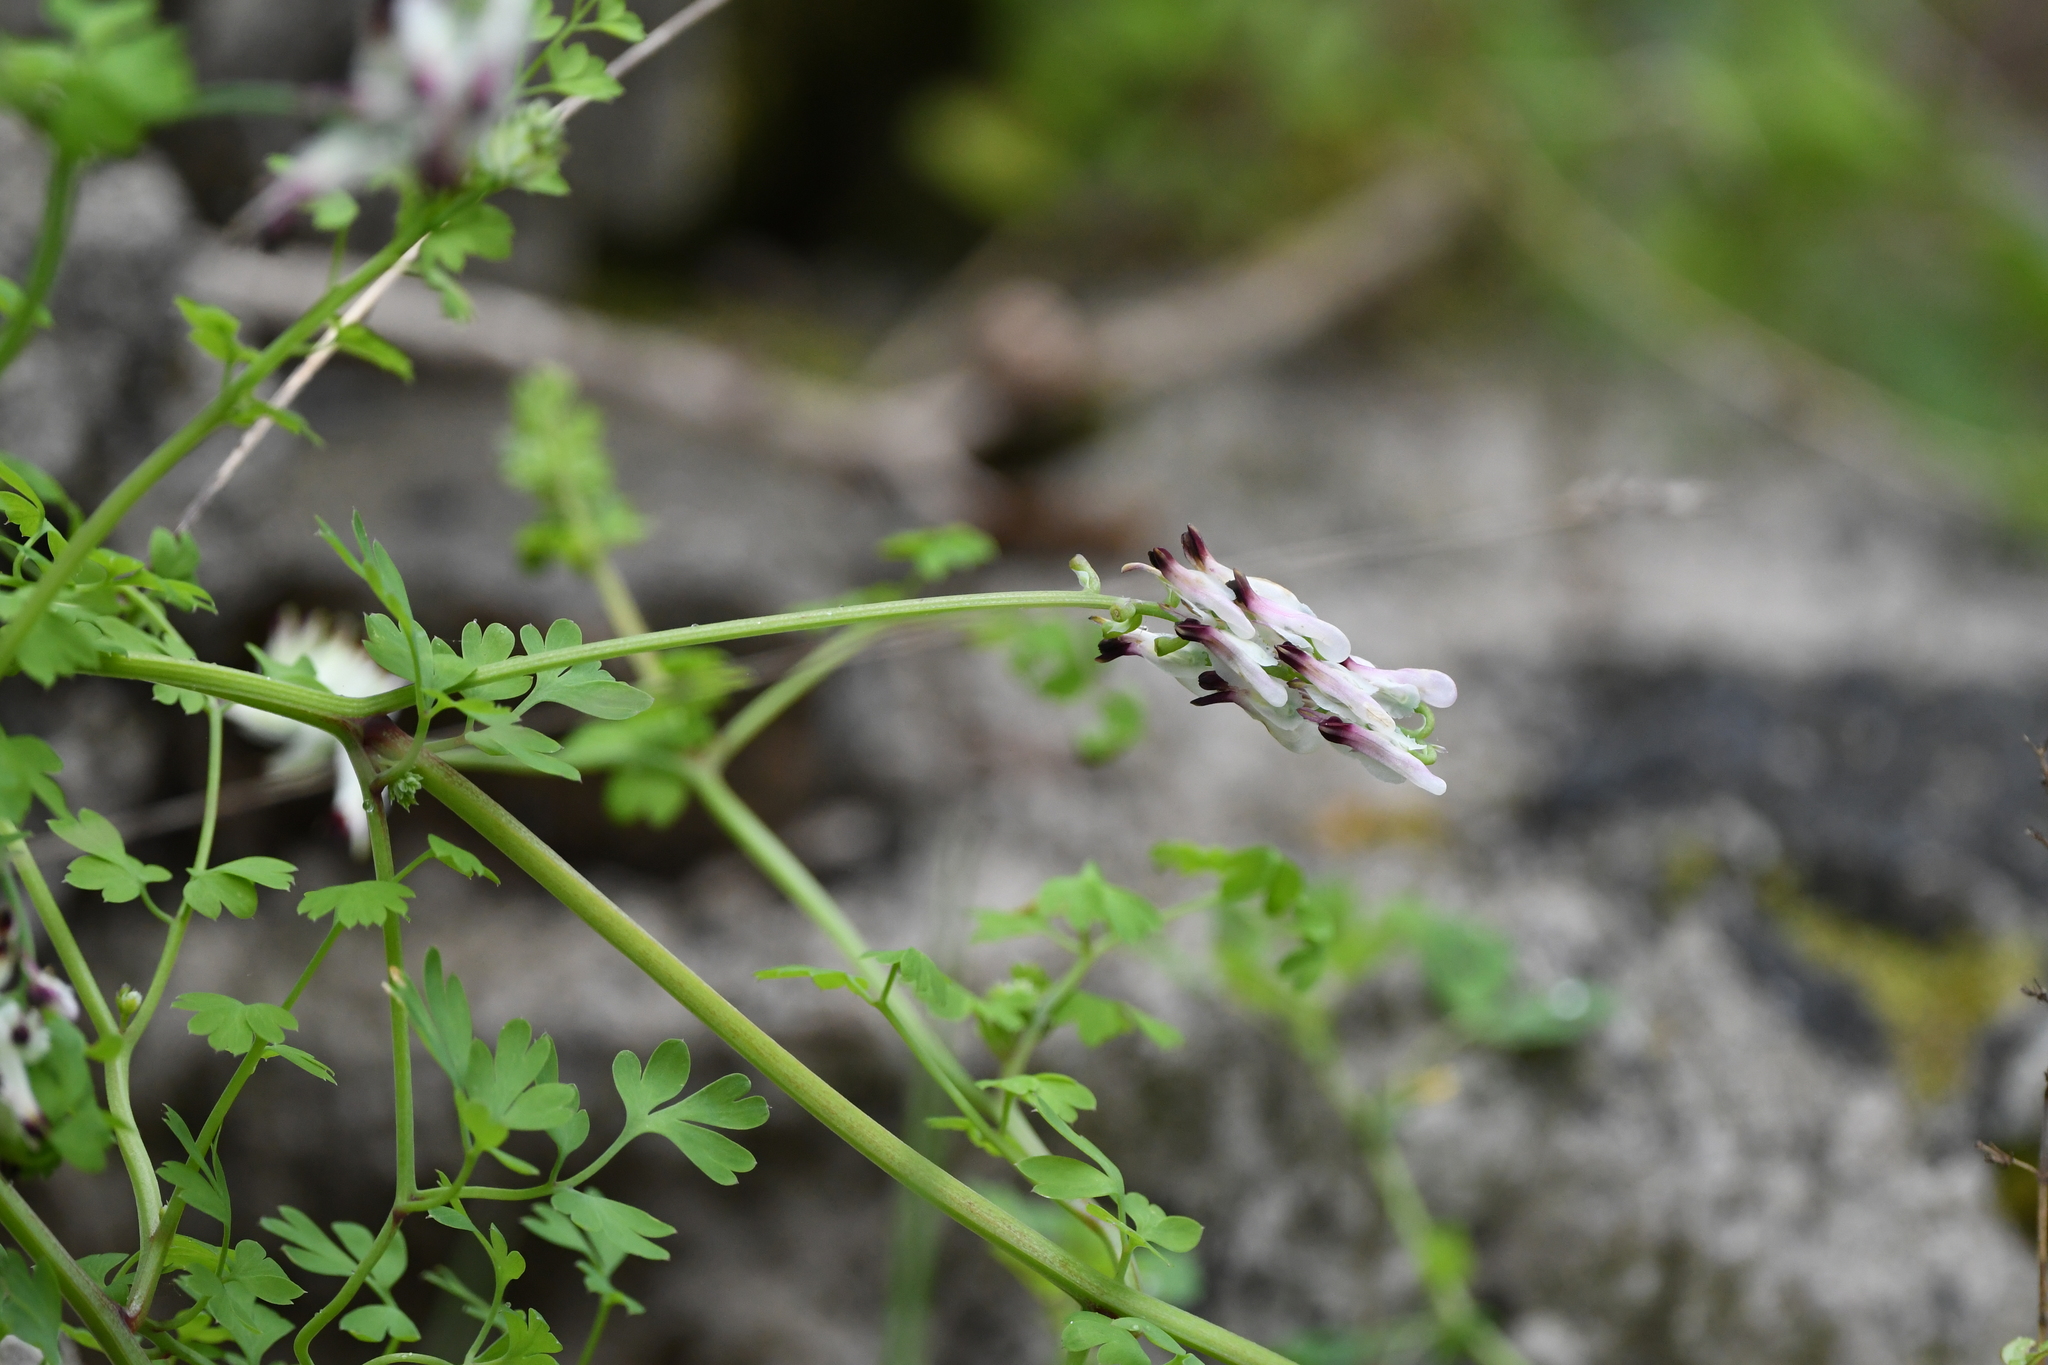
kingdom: Plantae
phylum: Tracheophyta
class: Magnoliopsida
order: Ranunculales
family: Papaveraceae
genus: Fumaria
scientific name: Fumaria capreolata
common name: White ramping-fumitory
